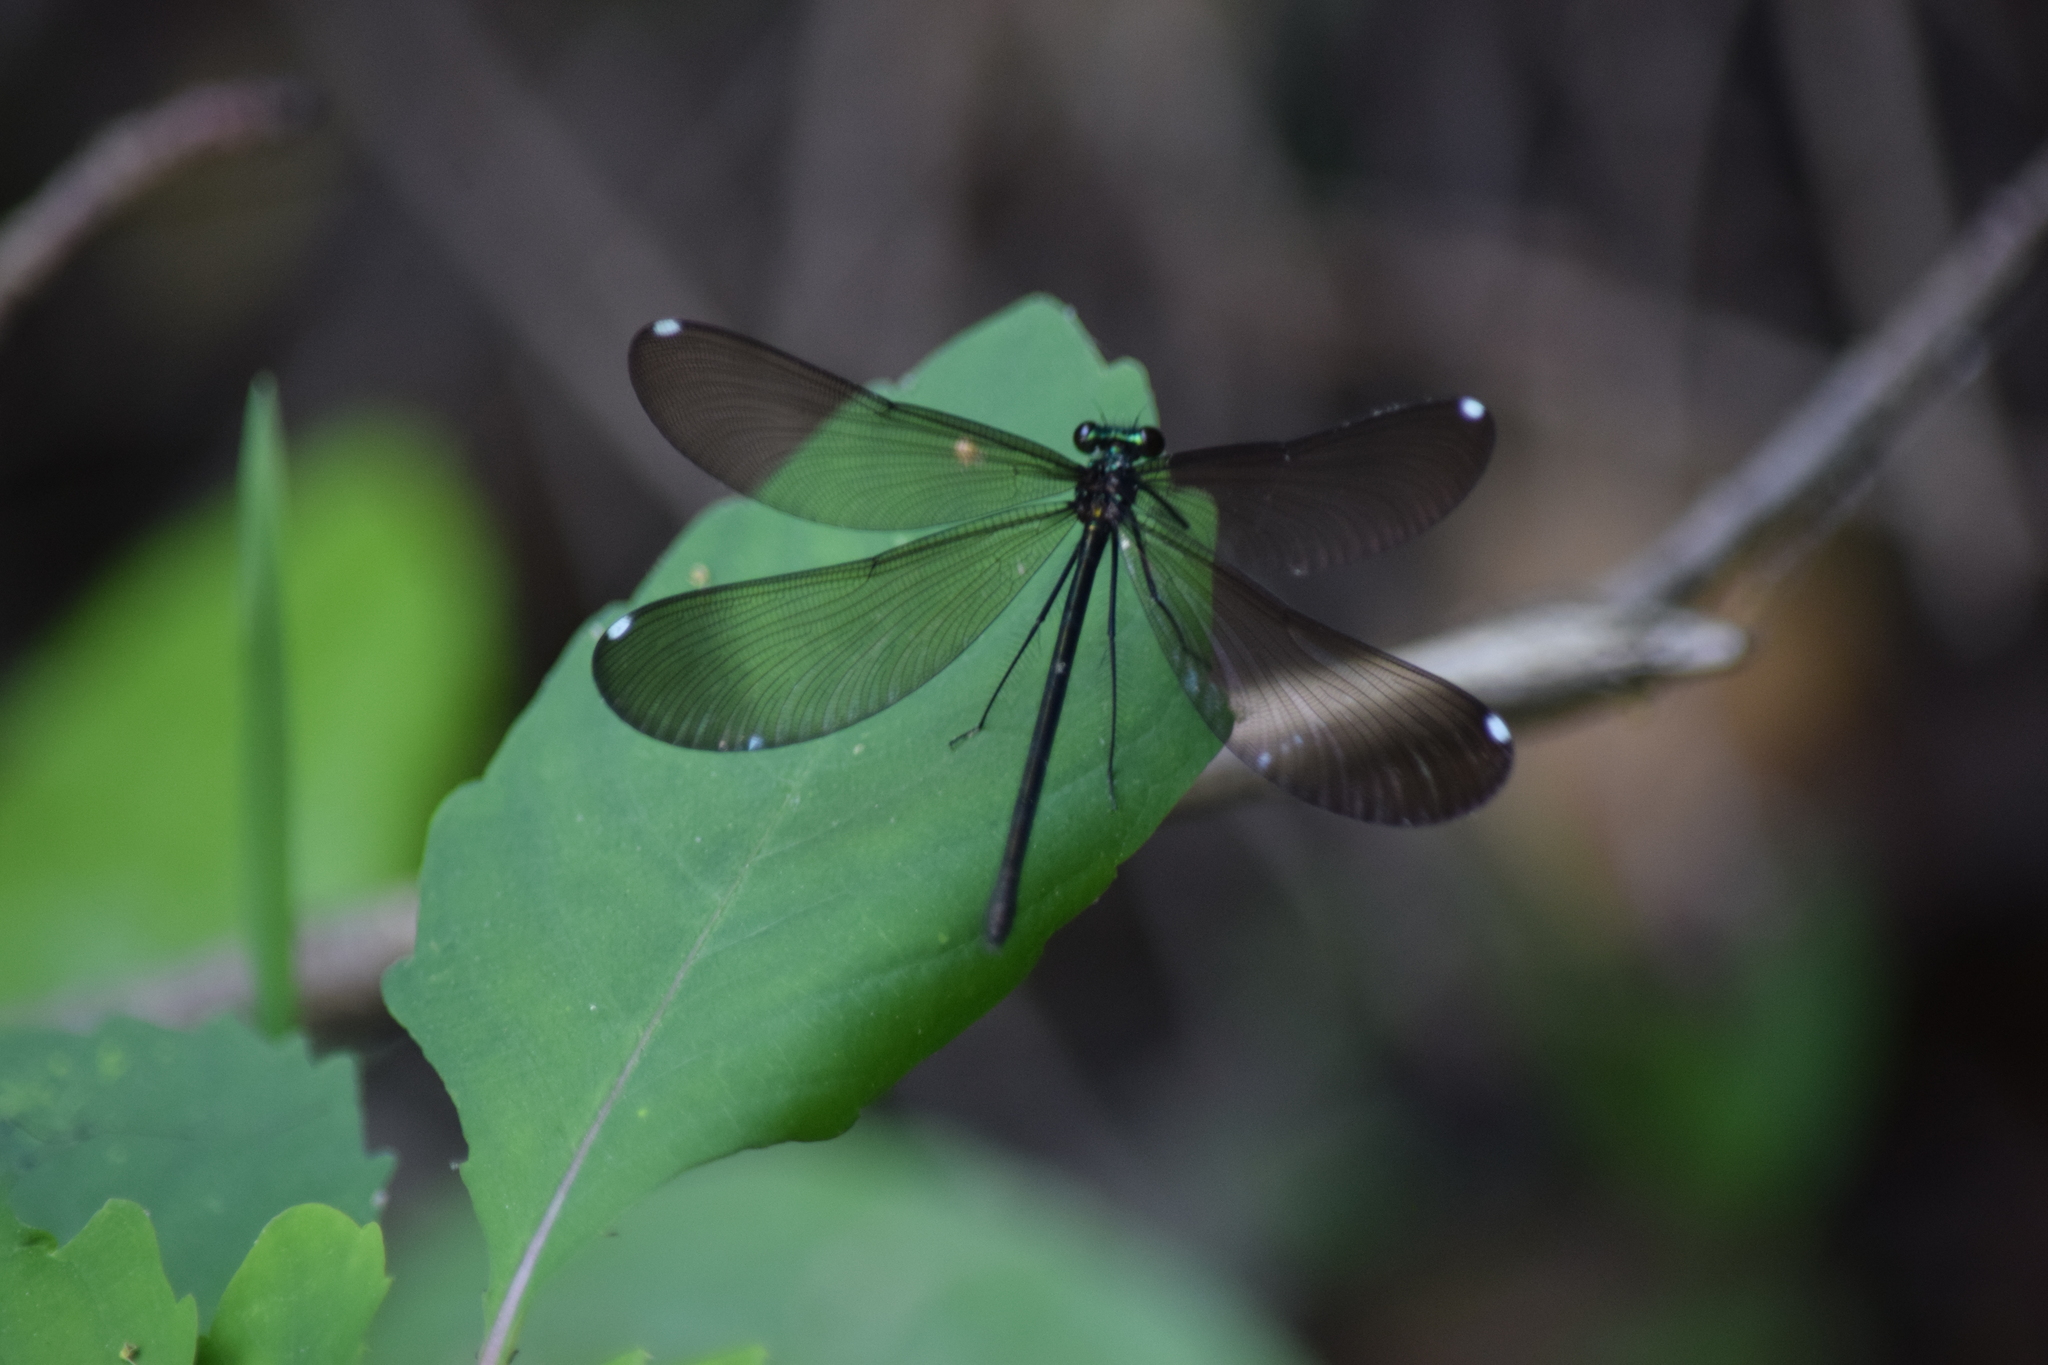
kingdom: Animalia
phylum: Arthropoda
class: Insecta
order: Odonata
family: Calopterygidae
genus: Calopteryx
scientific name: Calopteryx maculata
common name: Ebony jewelwing
